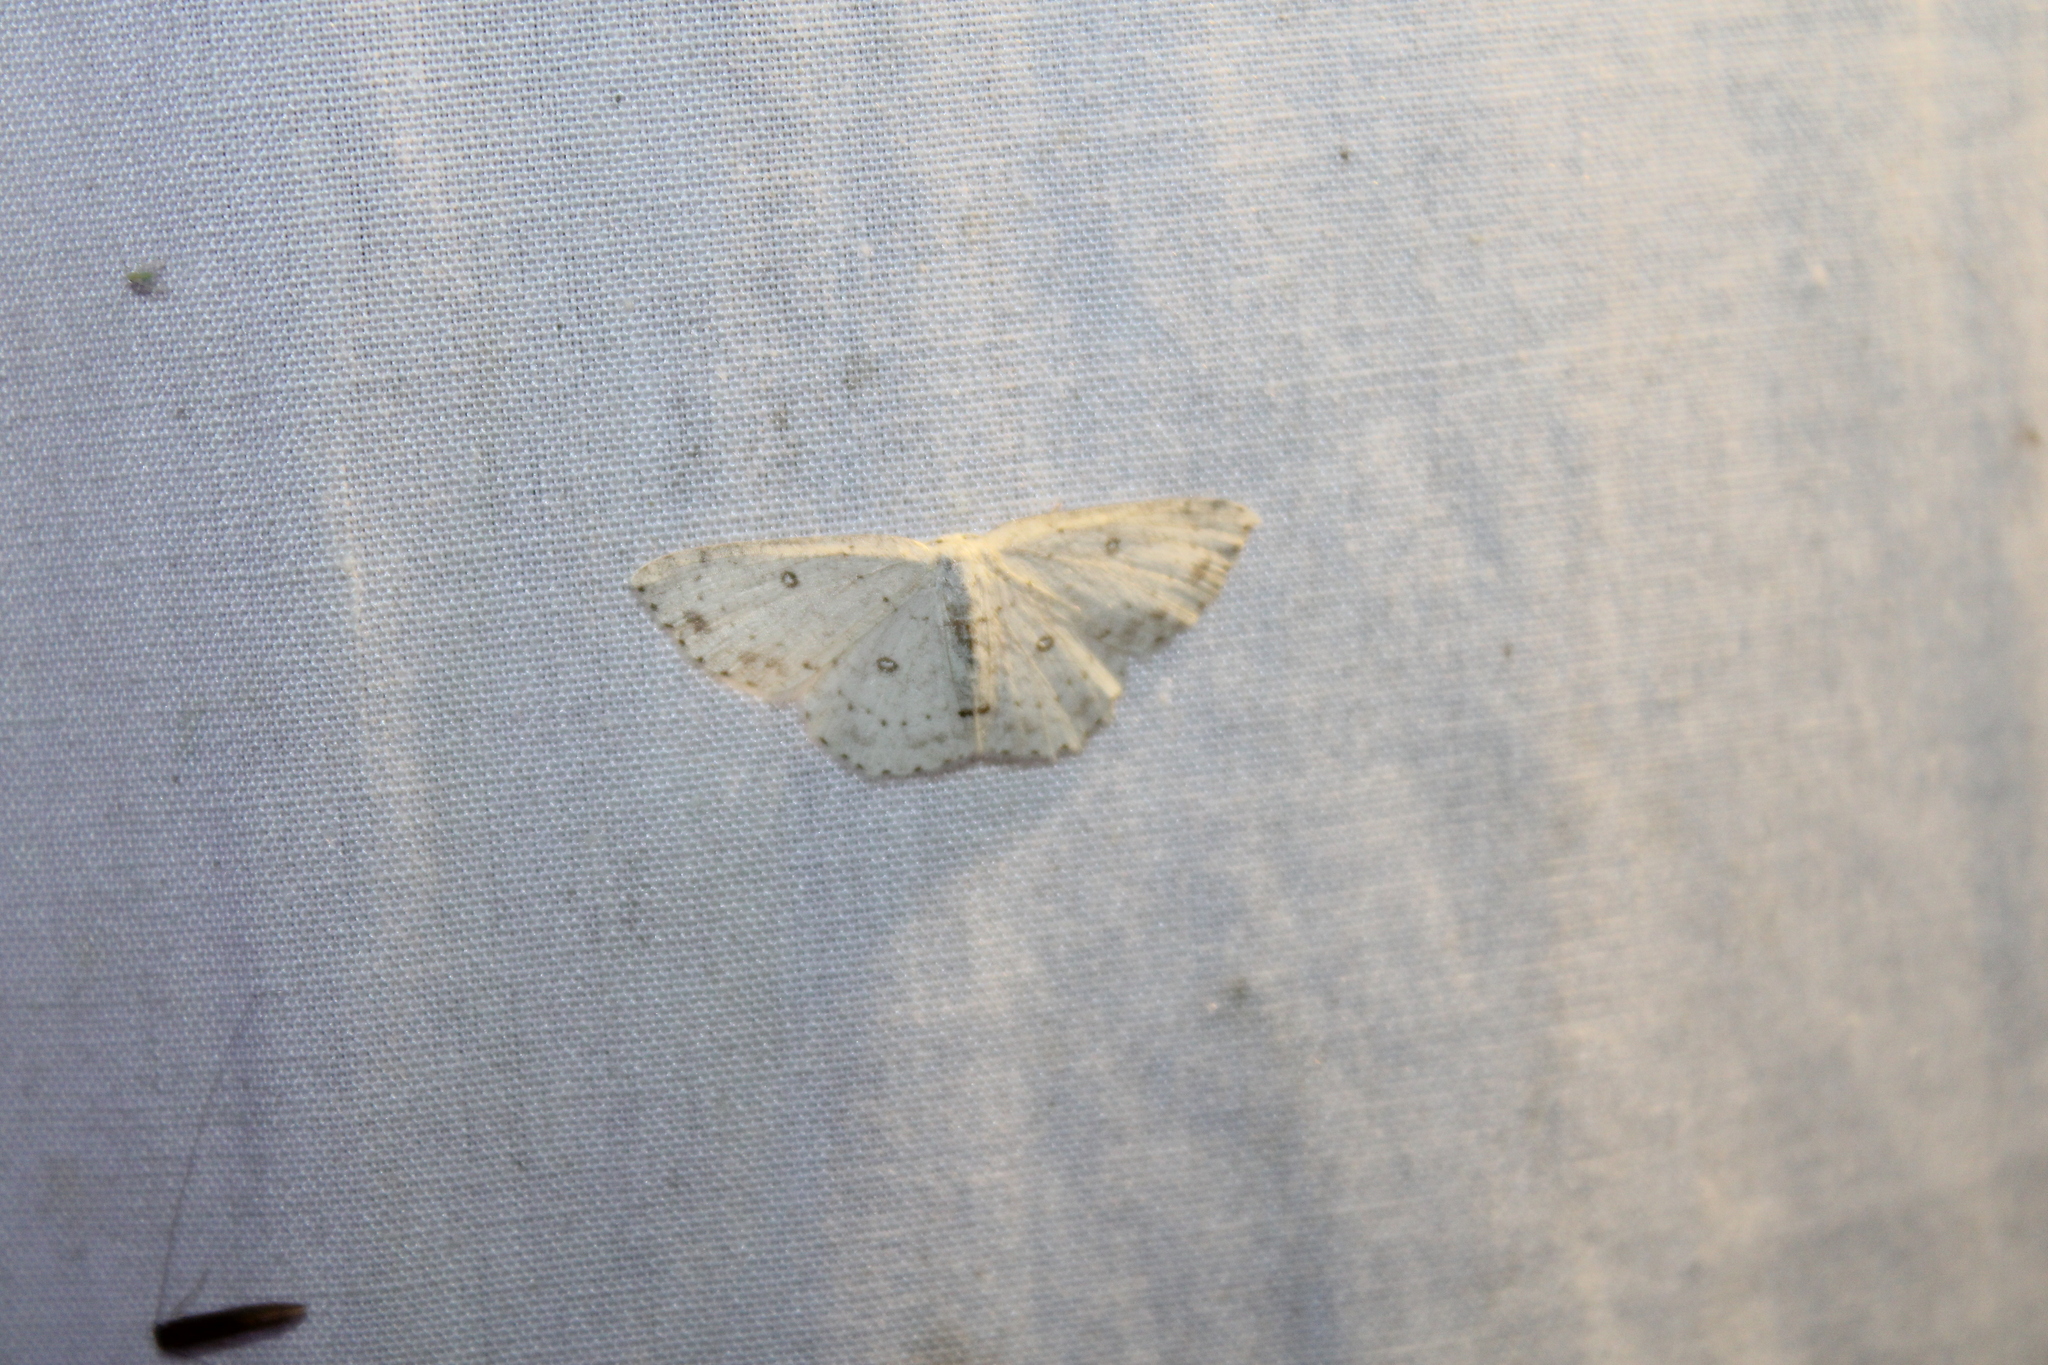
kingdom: Animalia
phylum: Arthropoda
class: Insecta
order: Lepidoptera
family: Geometridae
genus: Cyclophora
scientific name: Cyclophora pendulinaria
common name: Sweet fern geometer
